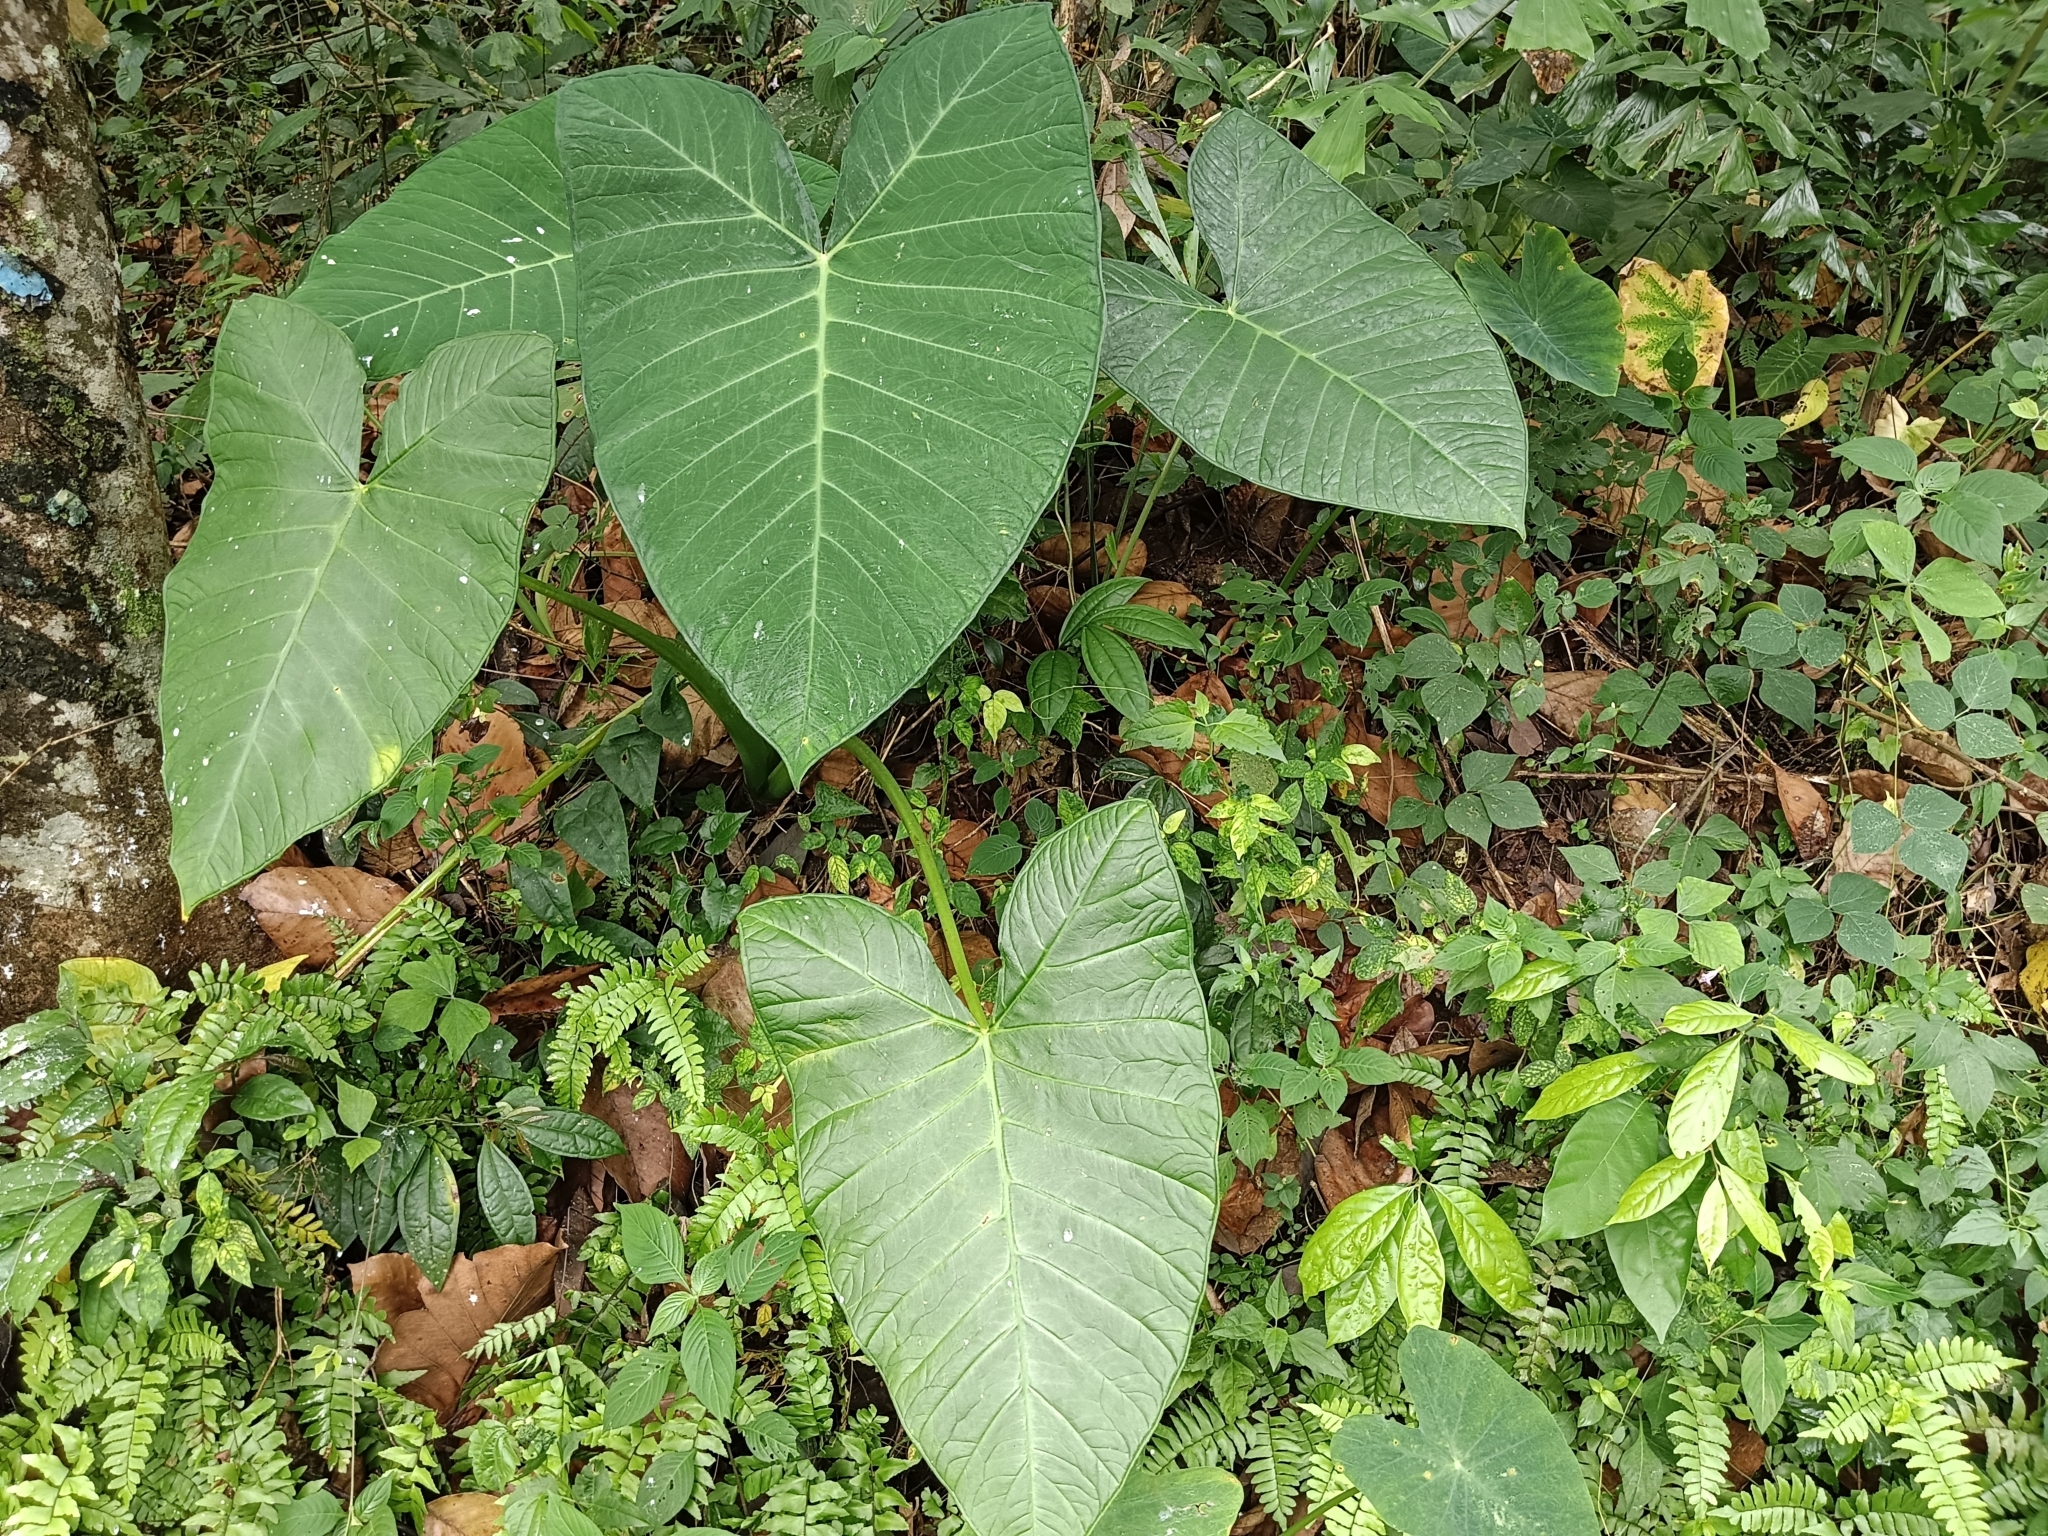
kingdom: Plantae
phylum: Tracheophyta
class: Liliopsida
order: Alismatales
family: Araceae
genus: Xanthosoma
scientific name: Xanthosoma sagittifolium
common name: Arrowleaf elephant's ear
